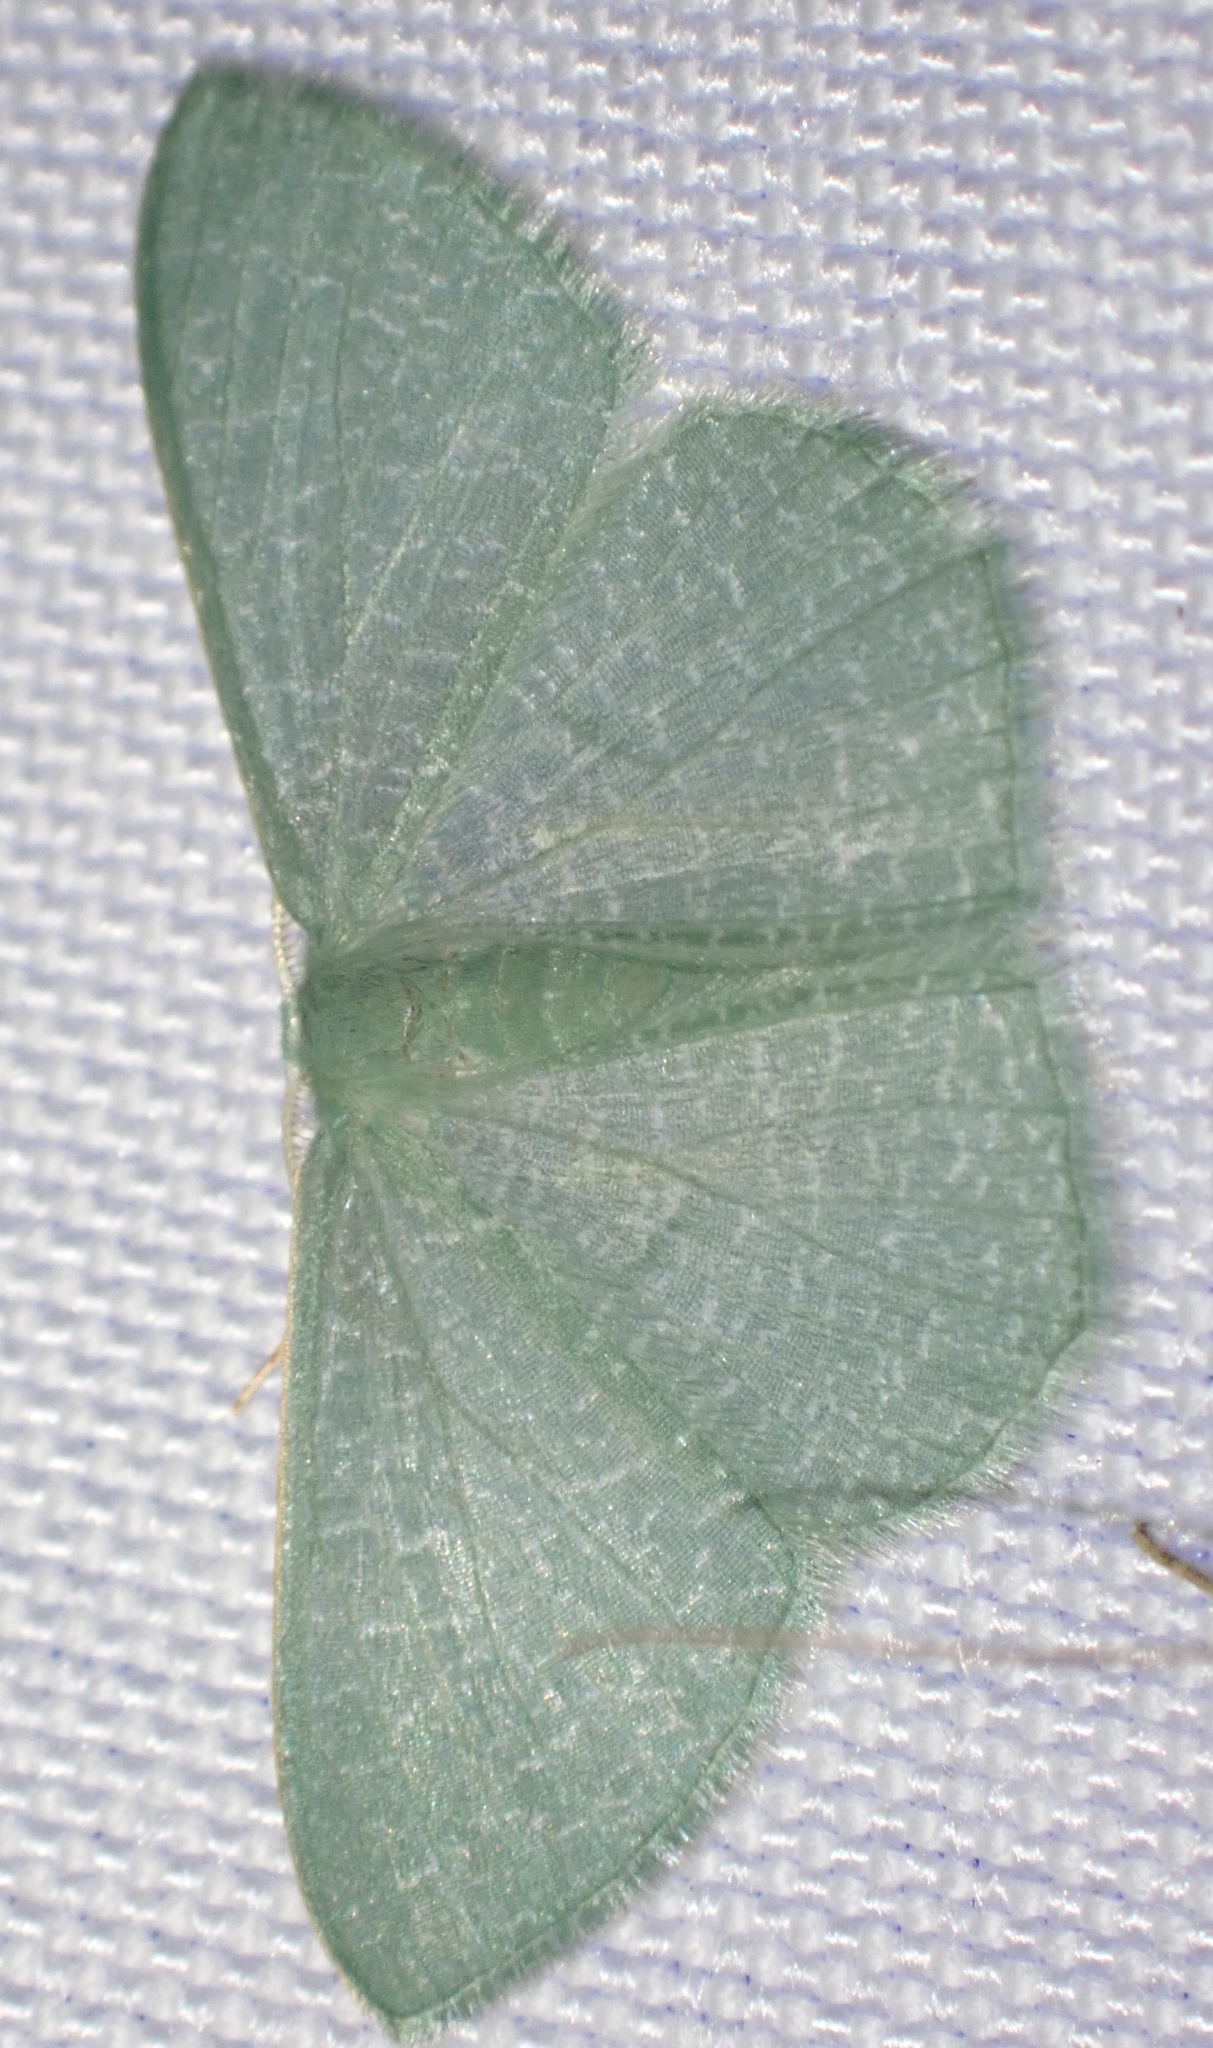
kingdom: Animalia
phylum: Arthropoda
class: Insecta
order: Lepidoptera
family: Geometridae
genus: Prasinocyma
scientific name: Prasinocyma vermicularia
